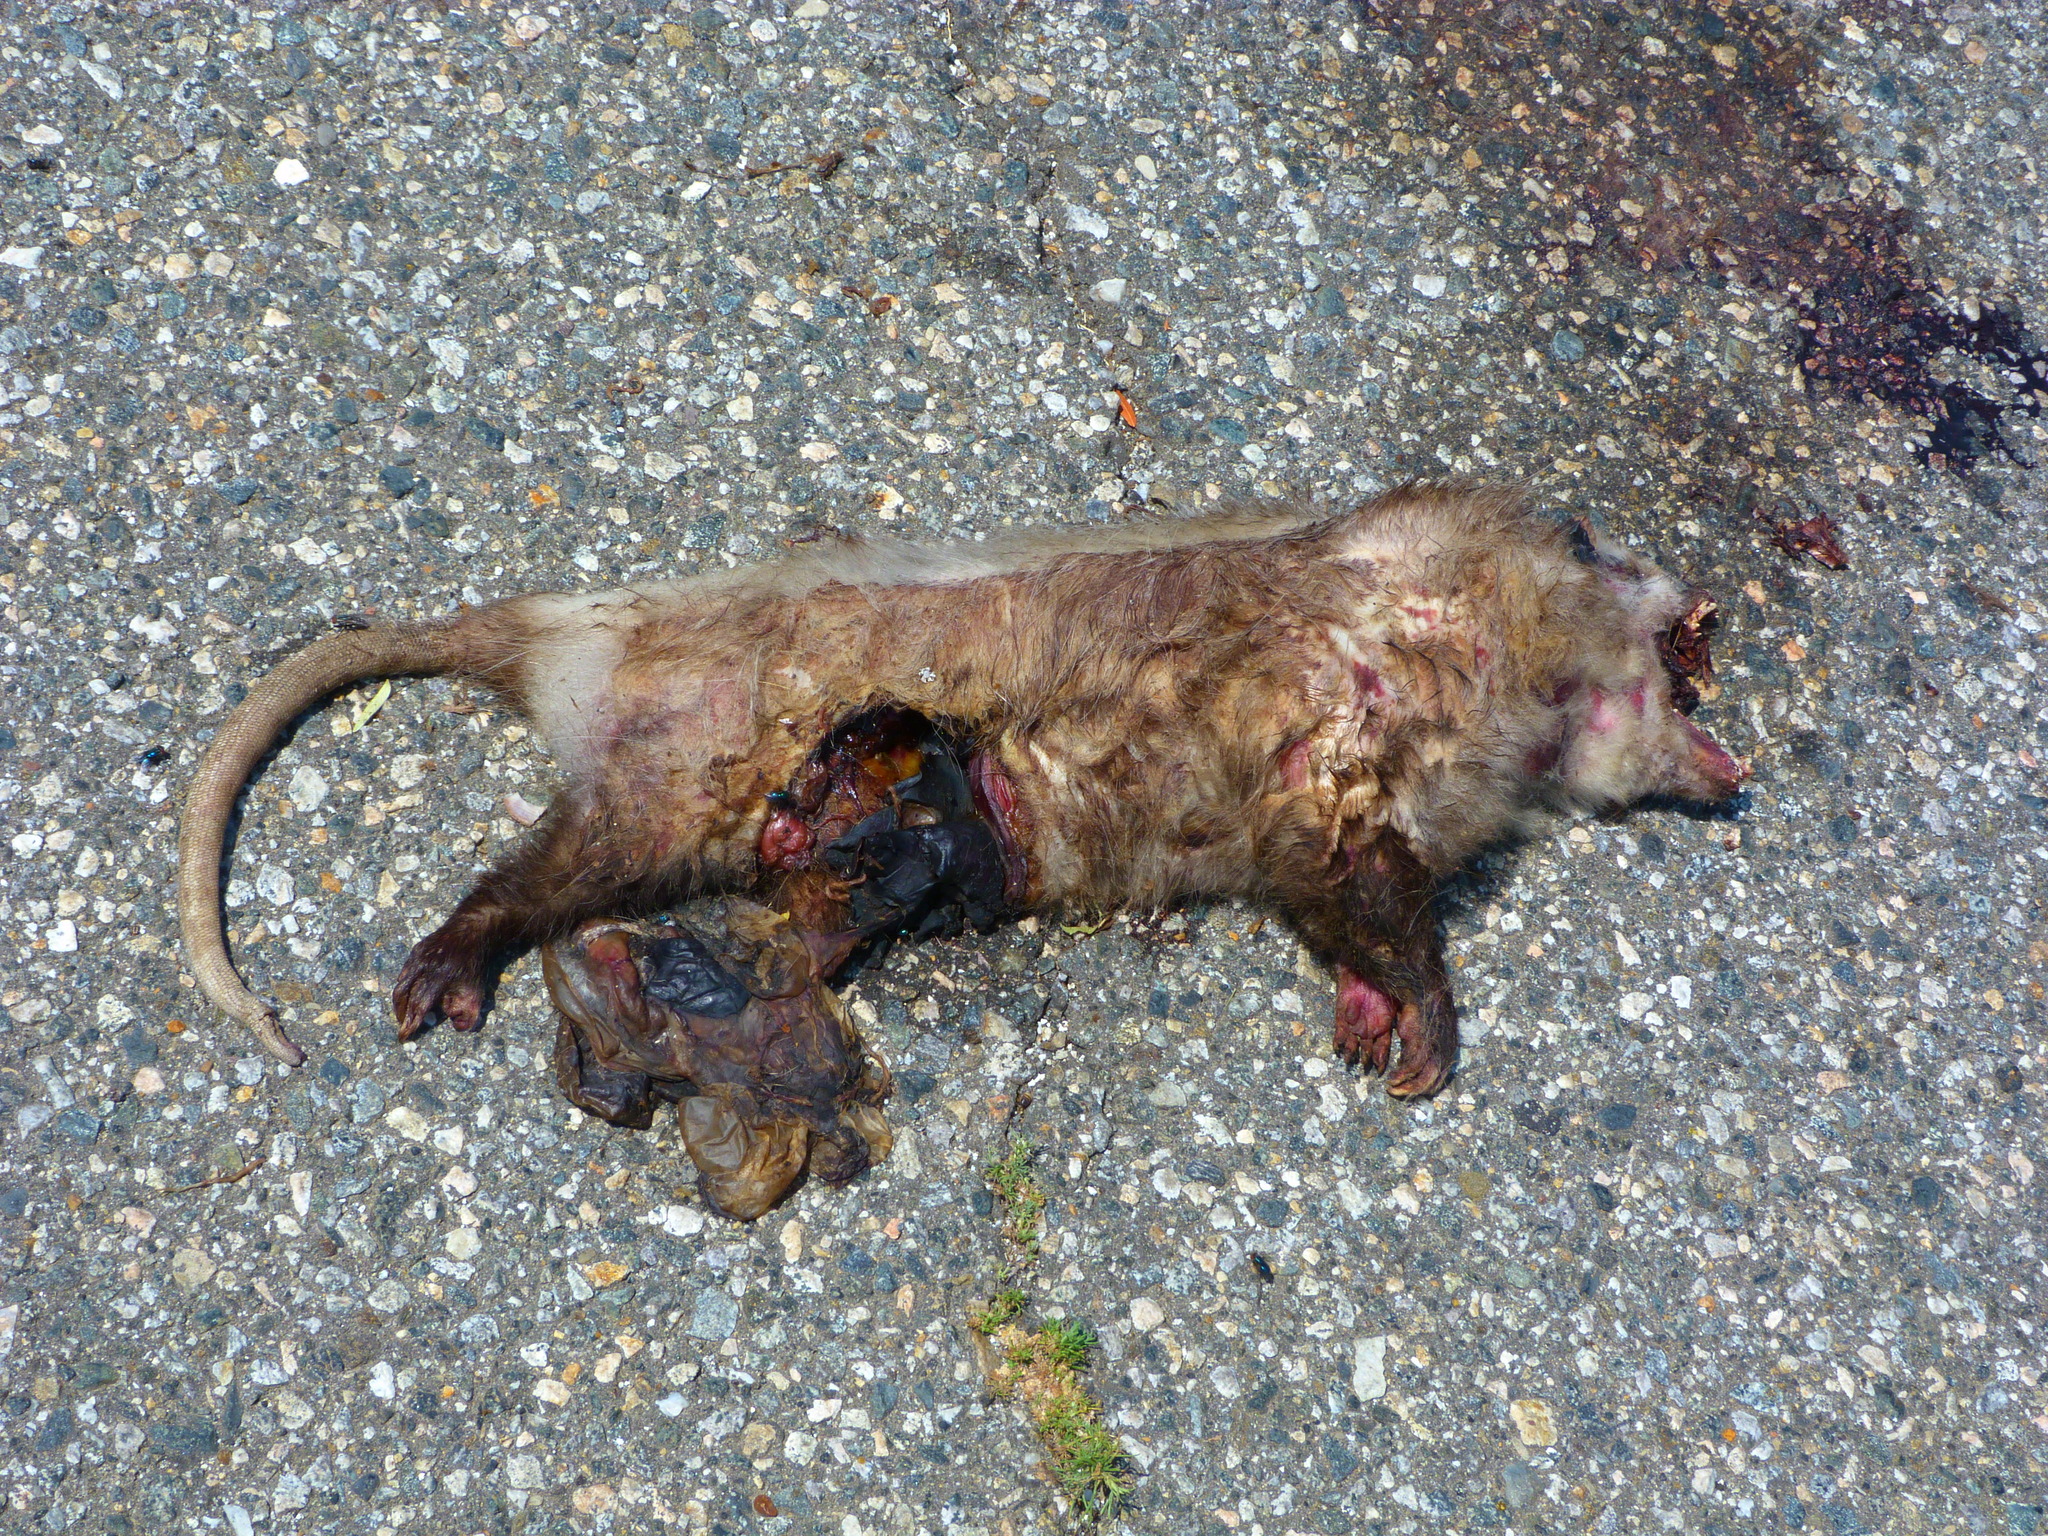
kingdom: Animalia
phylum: Chordata
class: Mammalia
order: Didelphimorphia
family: Didelphidae
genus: Didelphis
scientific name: Didelphis virginiana
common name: Virginia opossum
